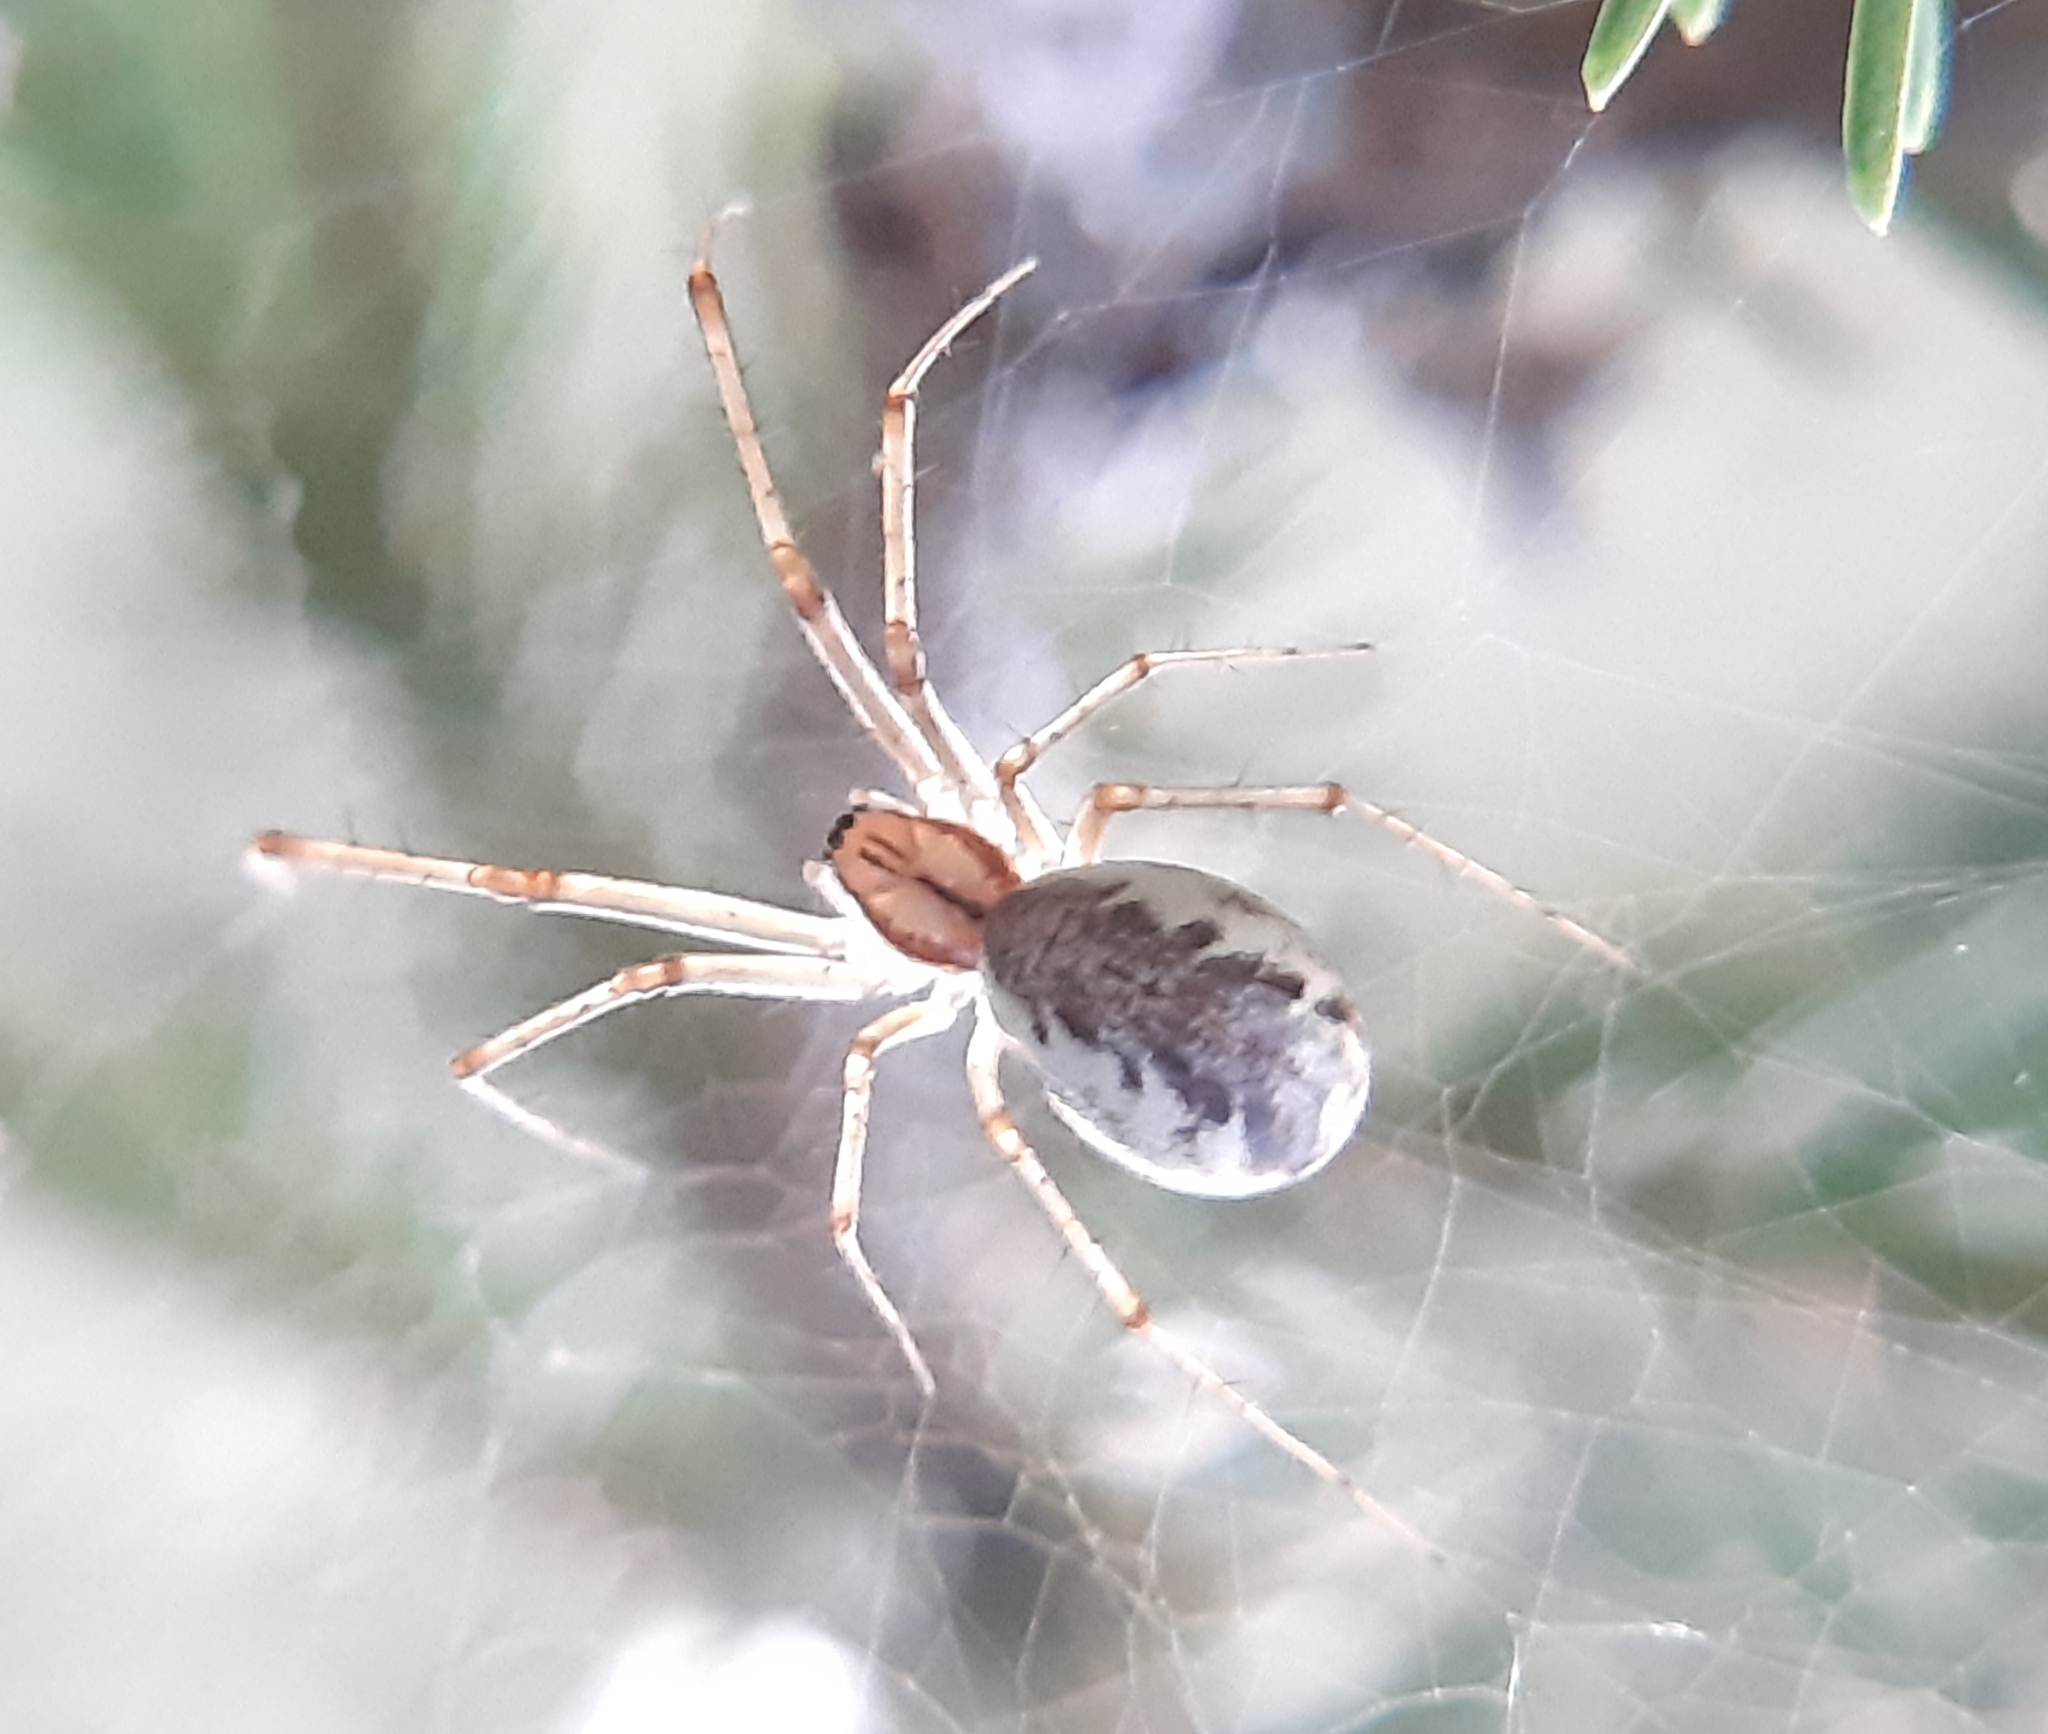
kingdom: Animalia
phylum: Arthropoda
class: Arachnida
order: Araneae
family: Linyphiidae
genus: Linyphia
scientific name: Linyphia triangularis
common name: Money spider
